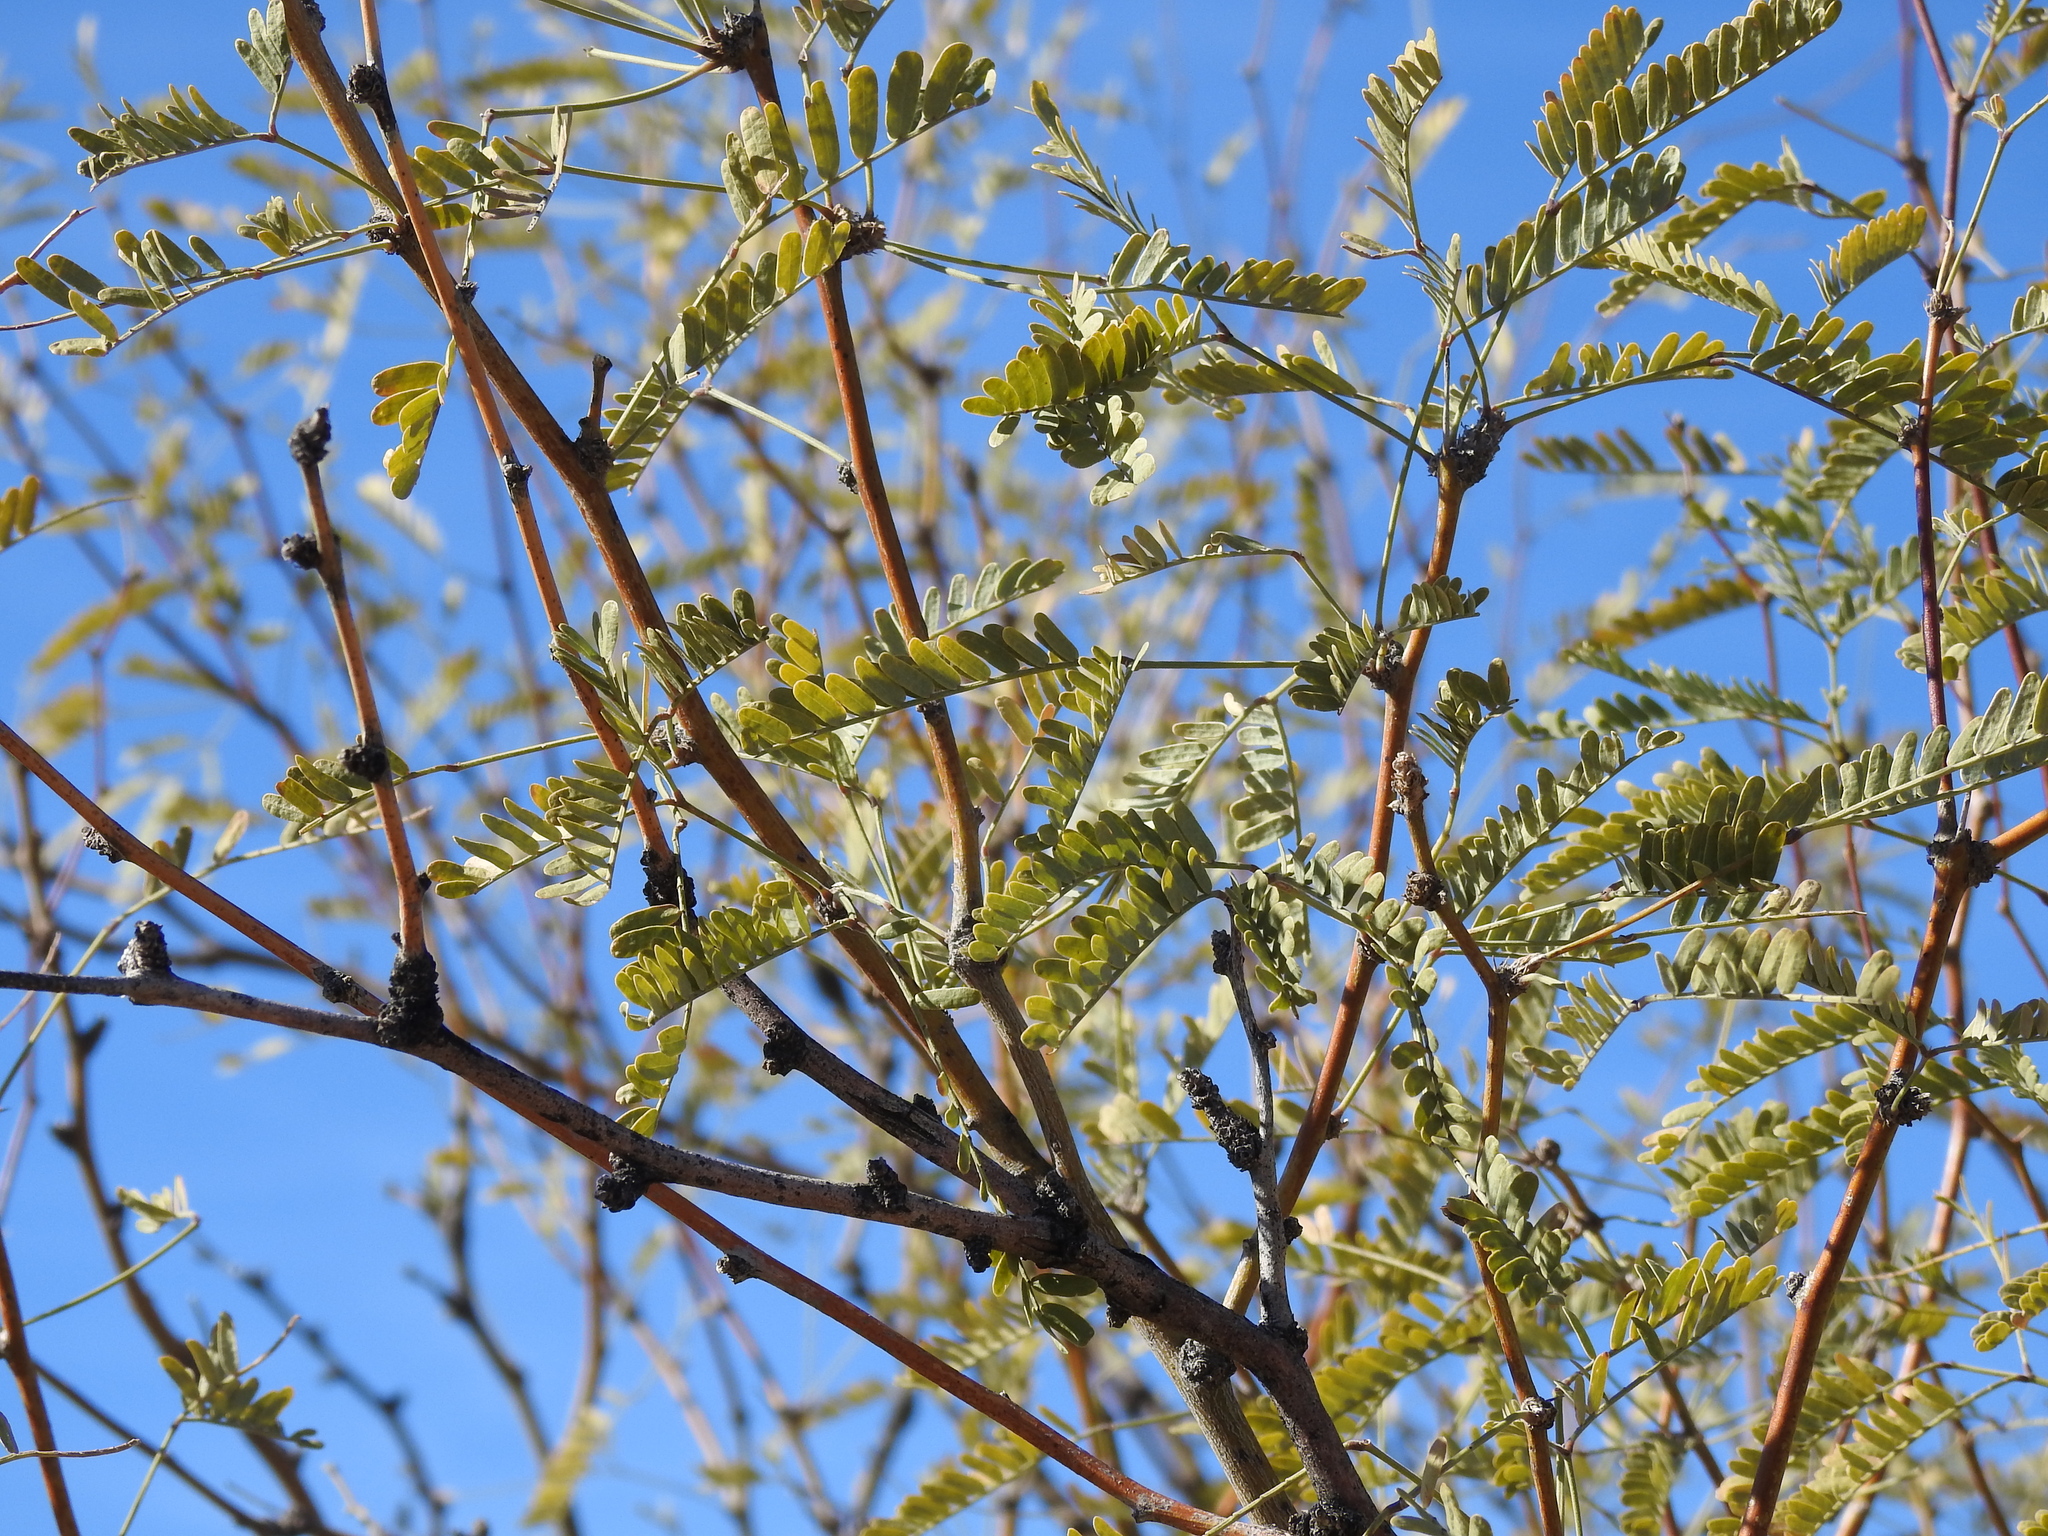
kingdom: Plantae
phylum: Tracheophyta
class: Magnoliopsida
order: Fabales
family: Fabaceae
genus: Prosopis
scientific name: Prosopis velutina
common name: Velvet mesquite
